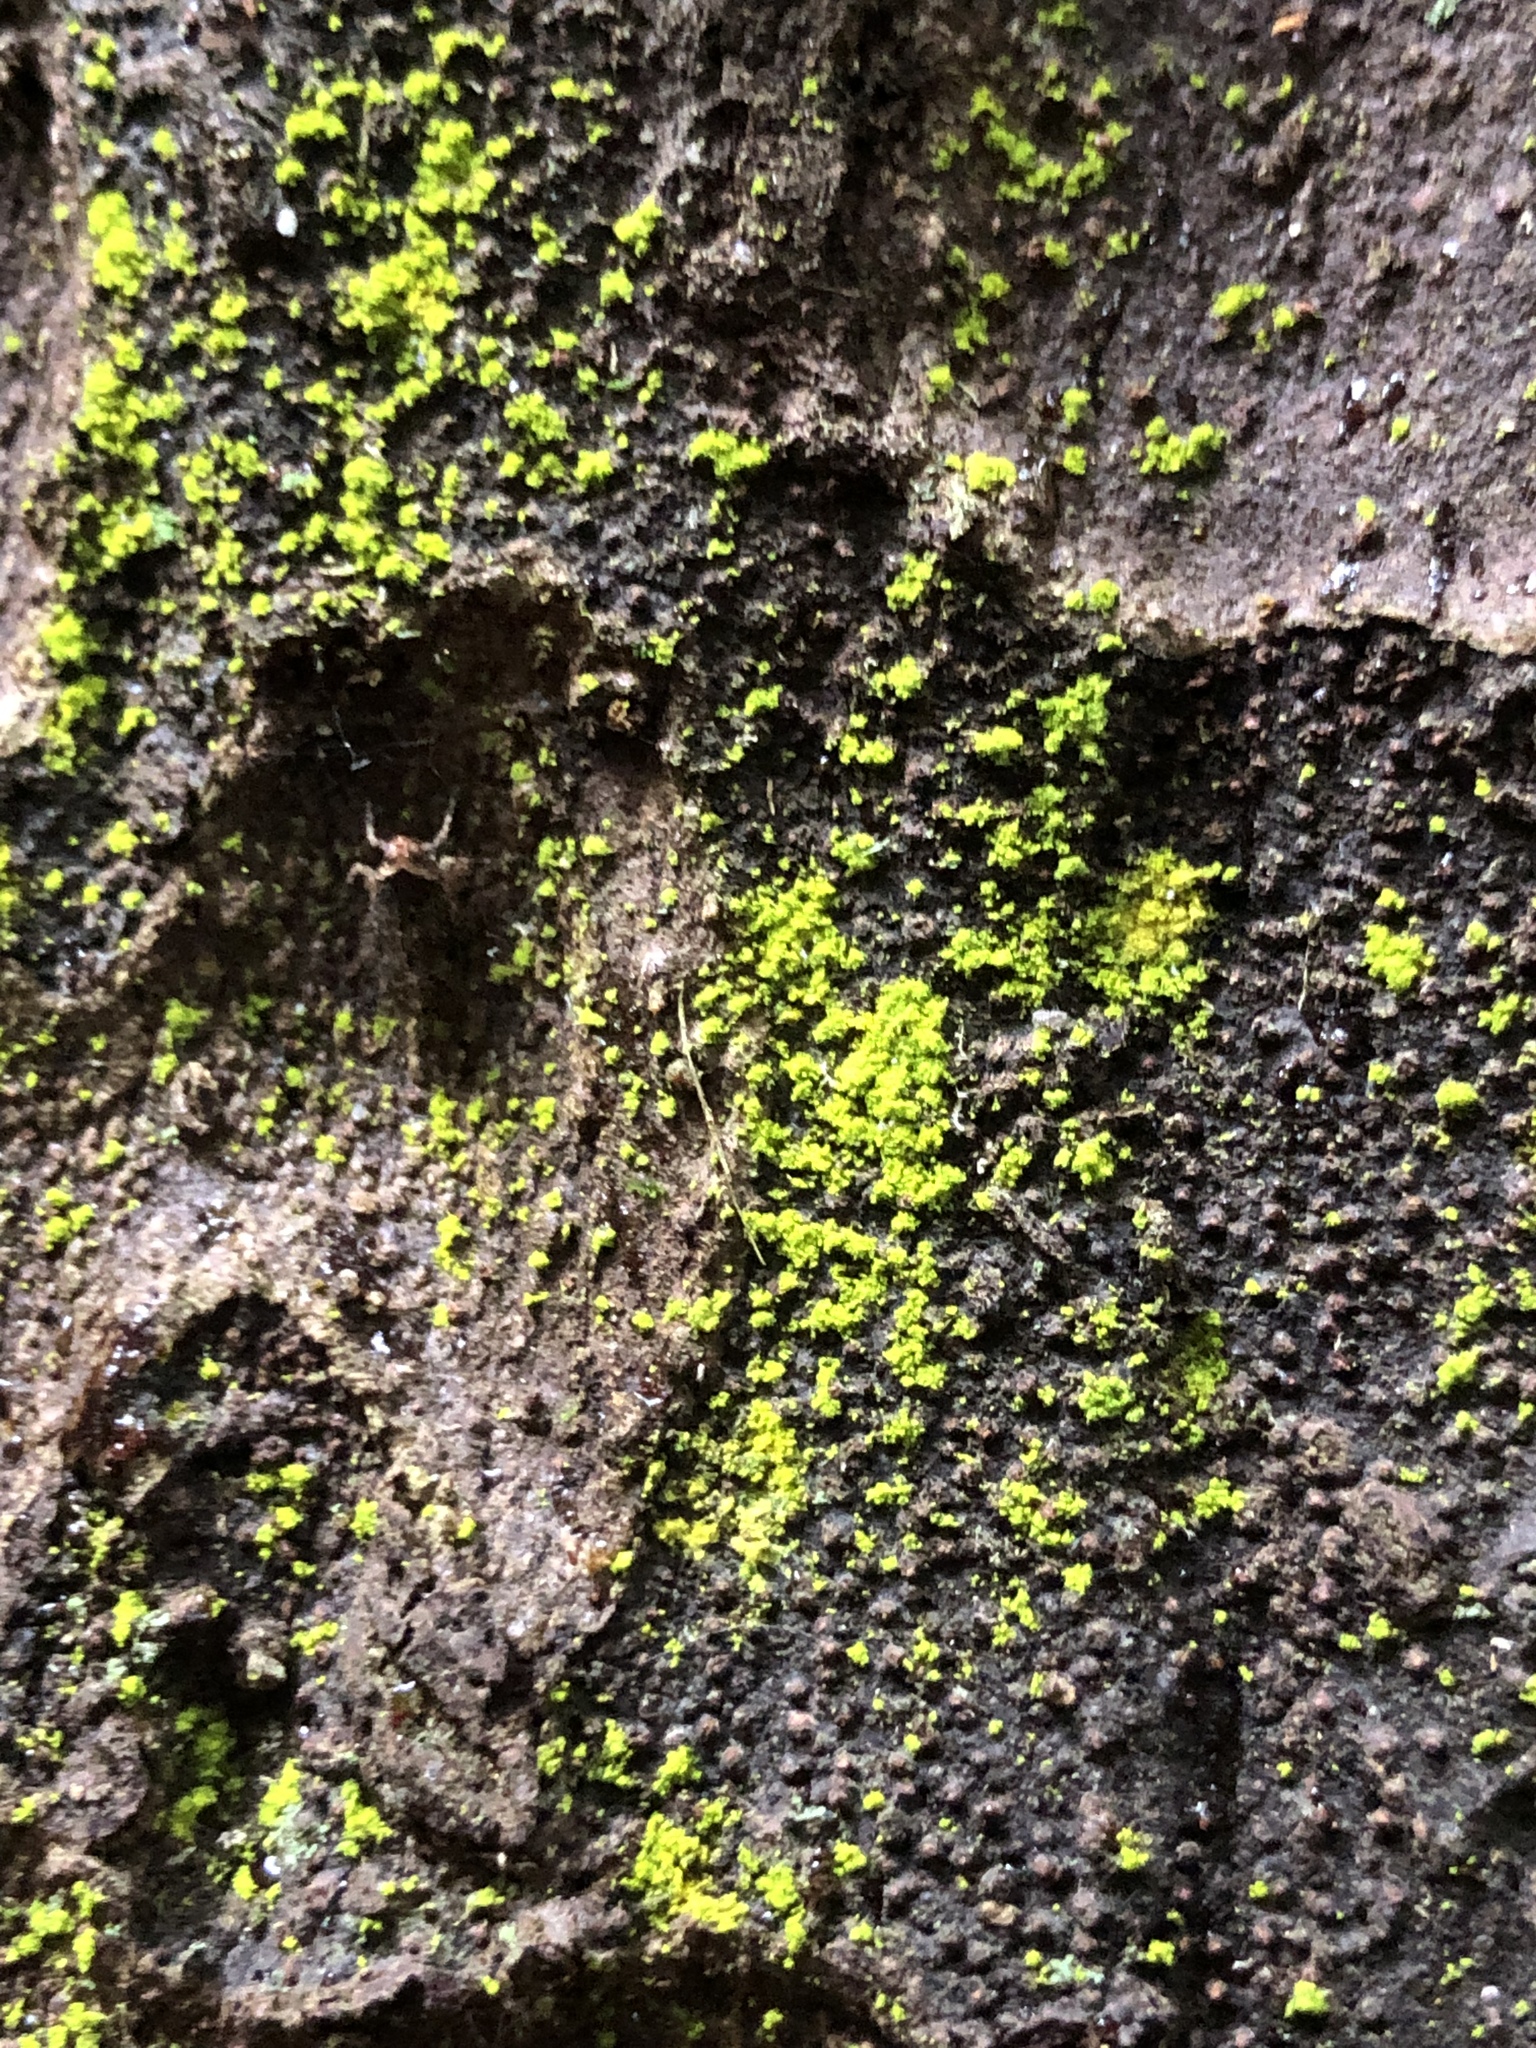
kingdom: Fungi
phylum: Ascomycota
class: Arthoniomycetes
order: Arthoniales
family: Chrysotrichaceae
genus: Chrysothrix
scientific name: Chrysothrix granulosa
